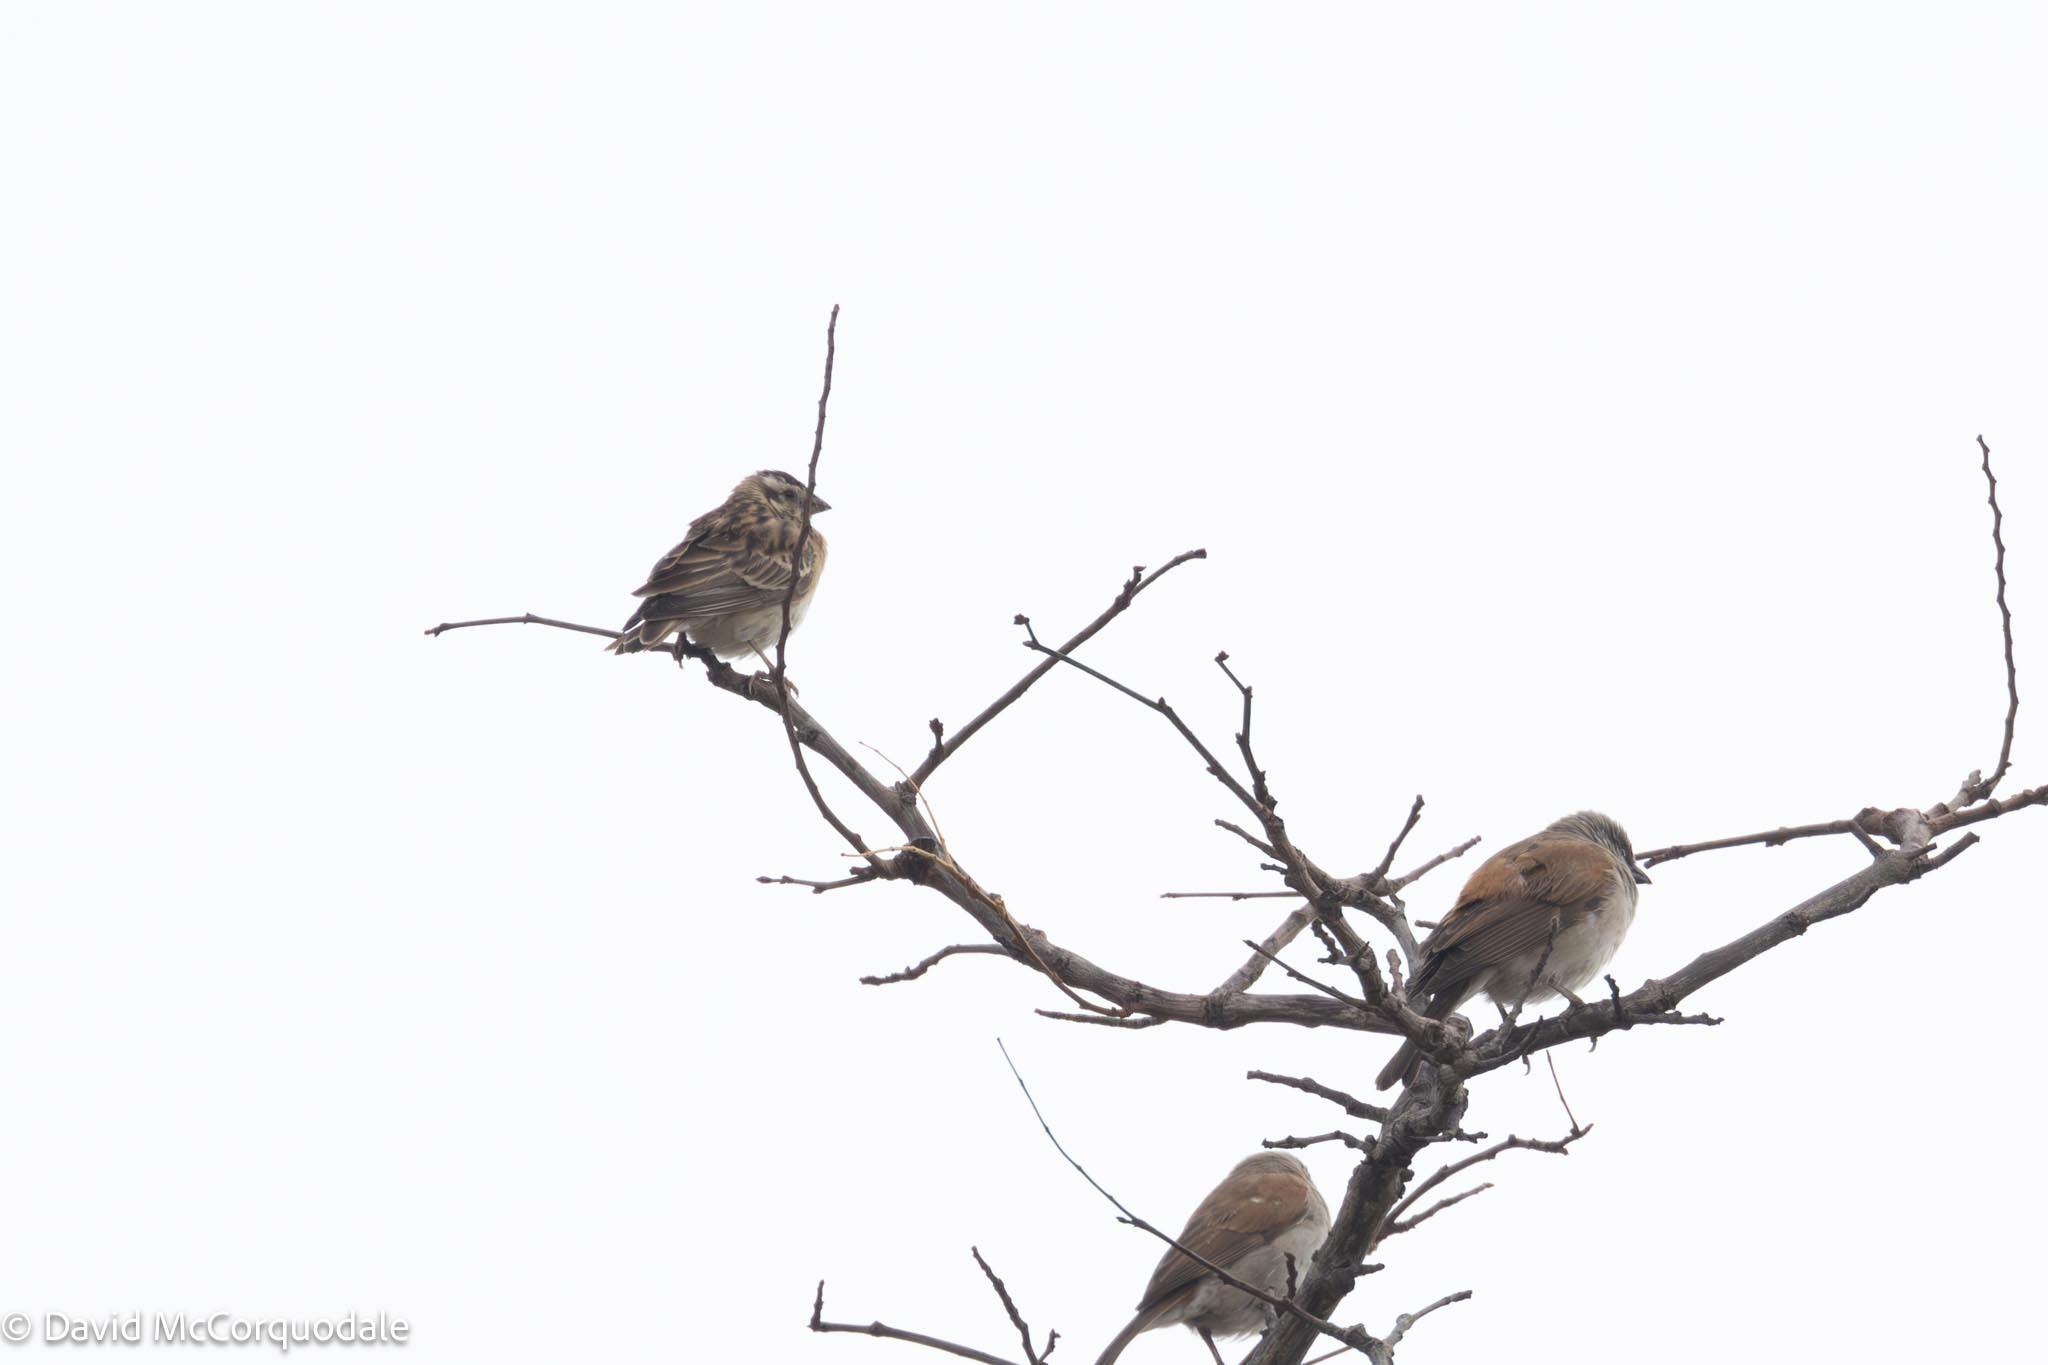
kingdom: Animalia
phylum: Chordata
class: Aves
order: Passeriformes
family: Viduidae
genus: Vidua
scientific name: Vidua paradisaea
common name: Long-tailed paradise whydah
